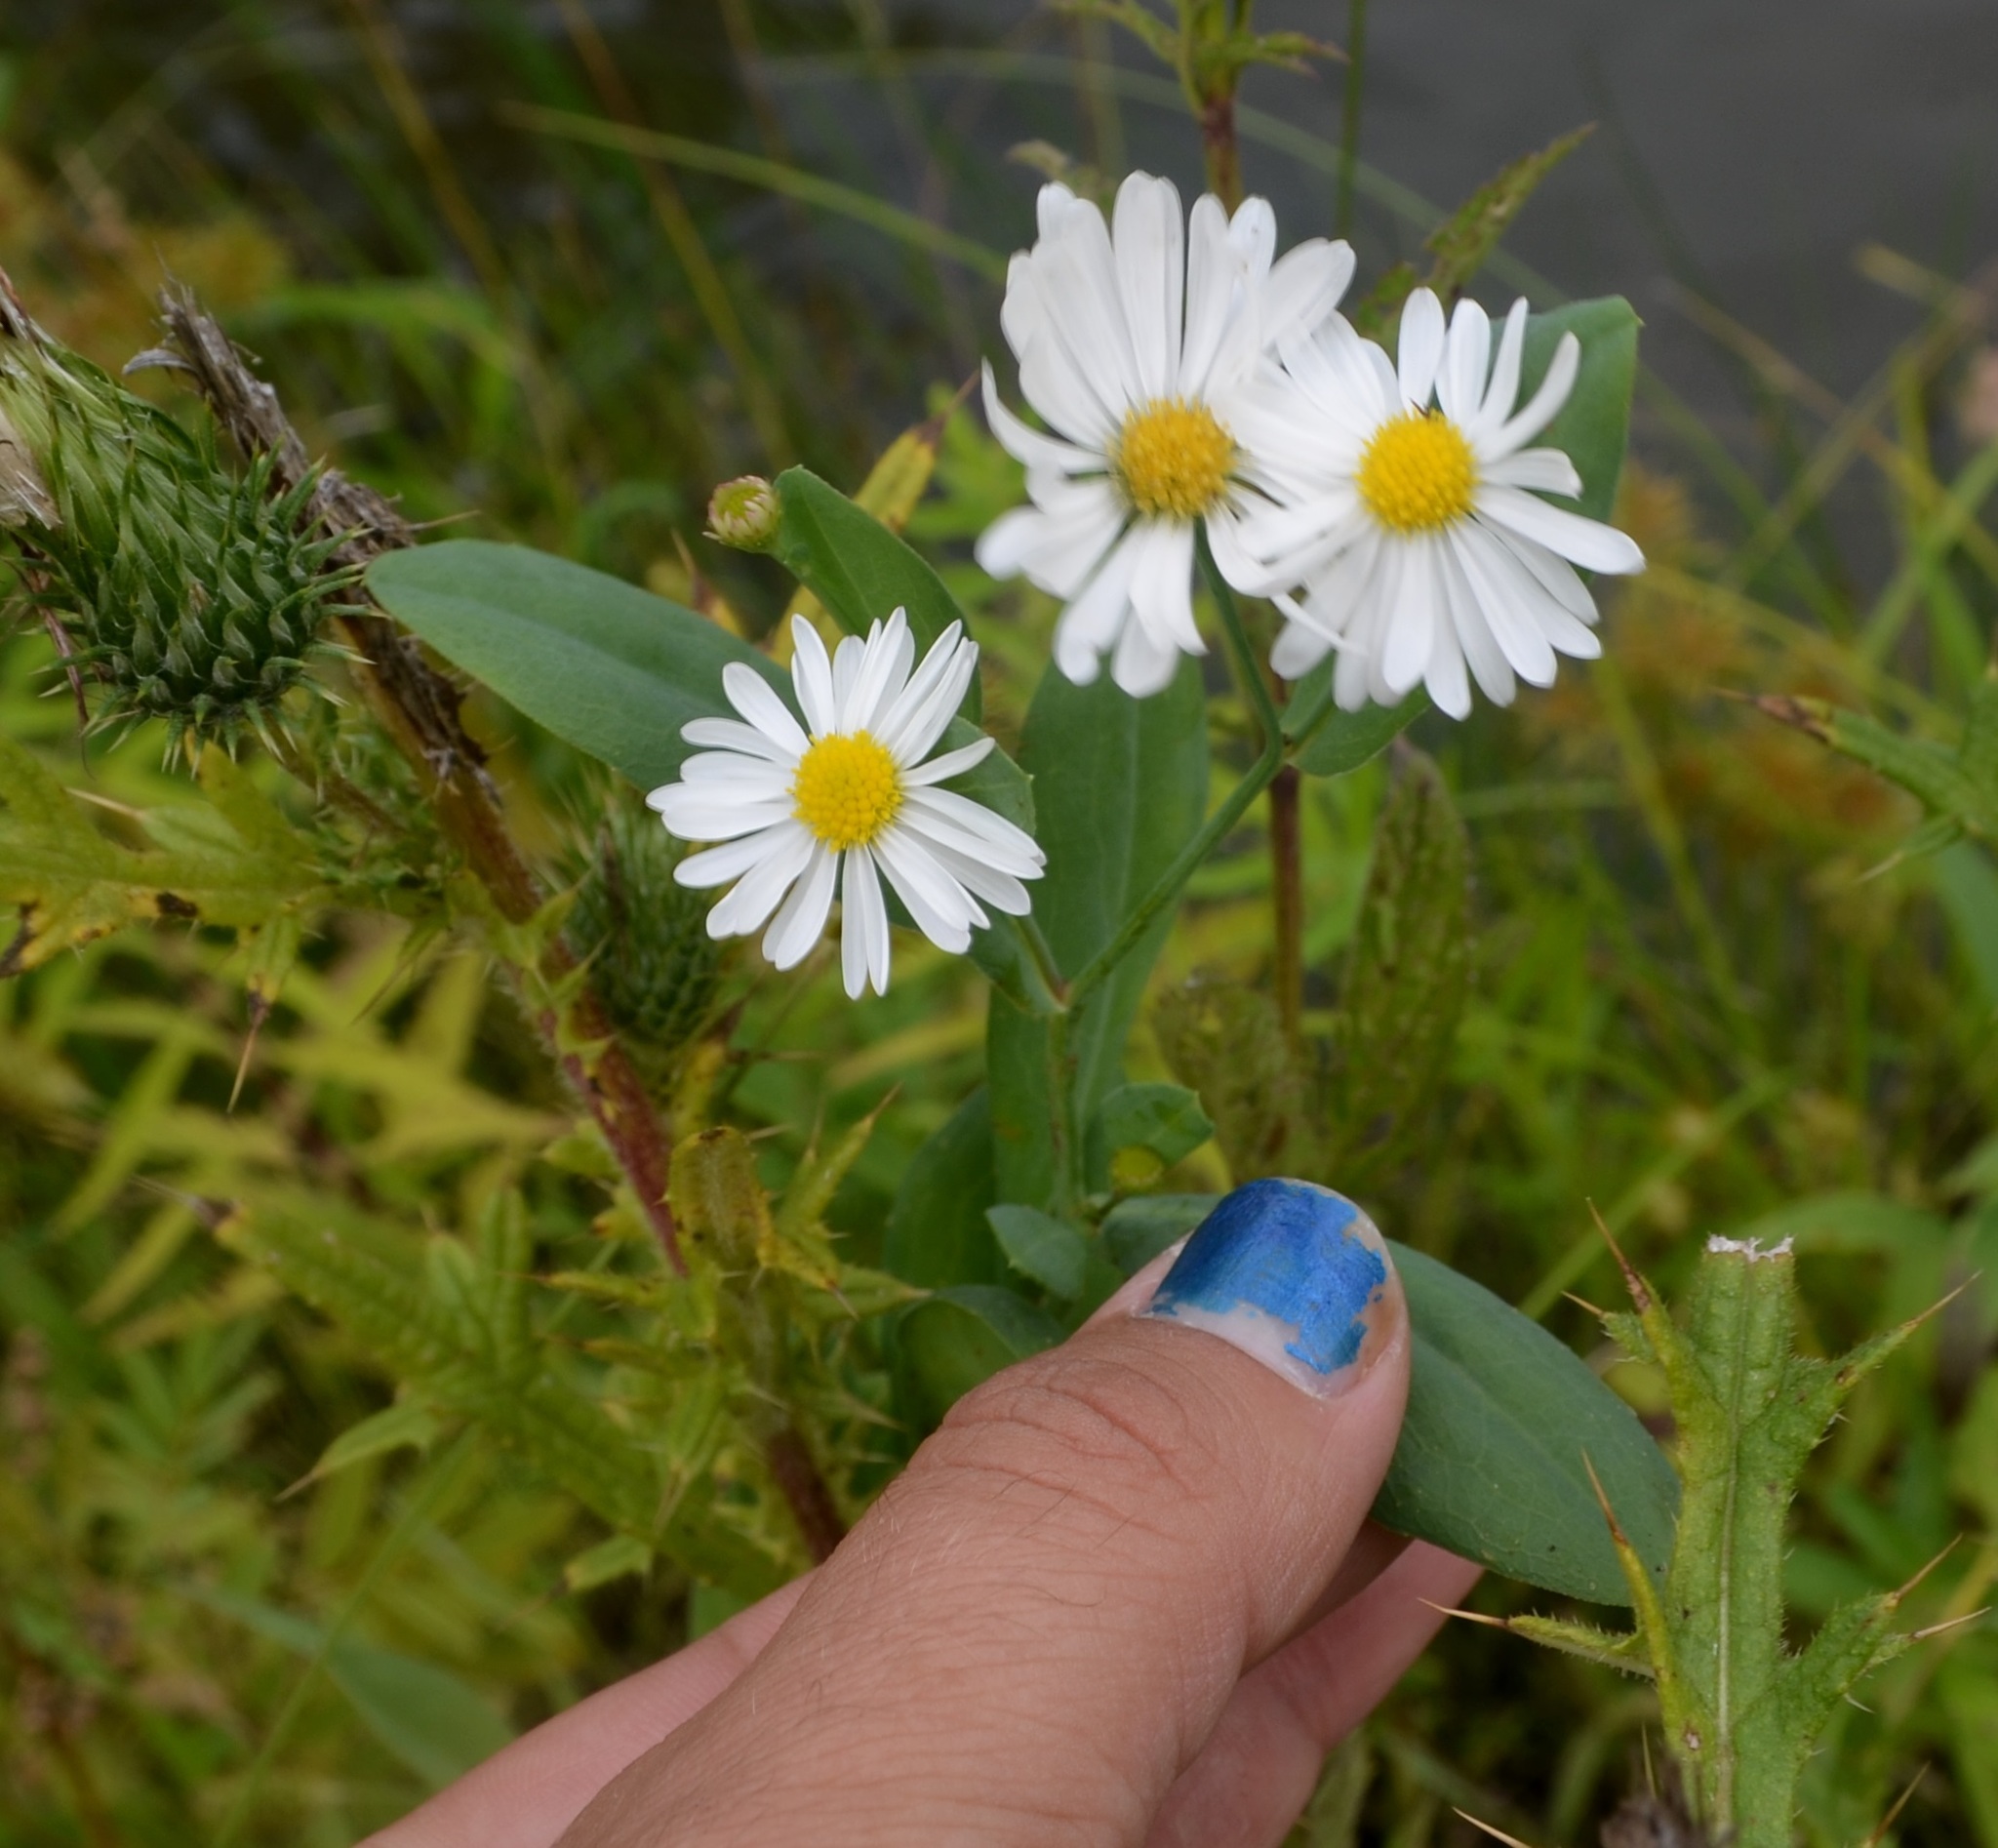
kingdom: Plantae
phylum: Tracheophyta
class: Magnoliopsida
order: Asterales
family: Asteraceae
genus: Boltonia
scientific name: Boltonia asteroides
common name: False chamomile
